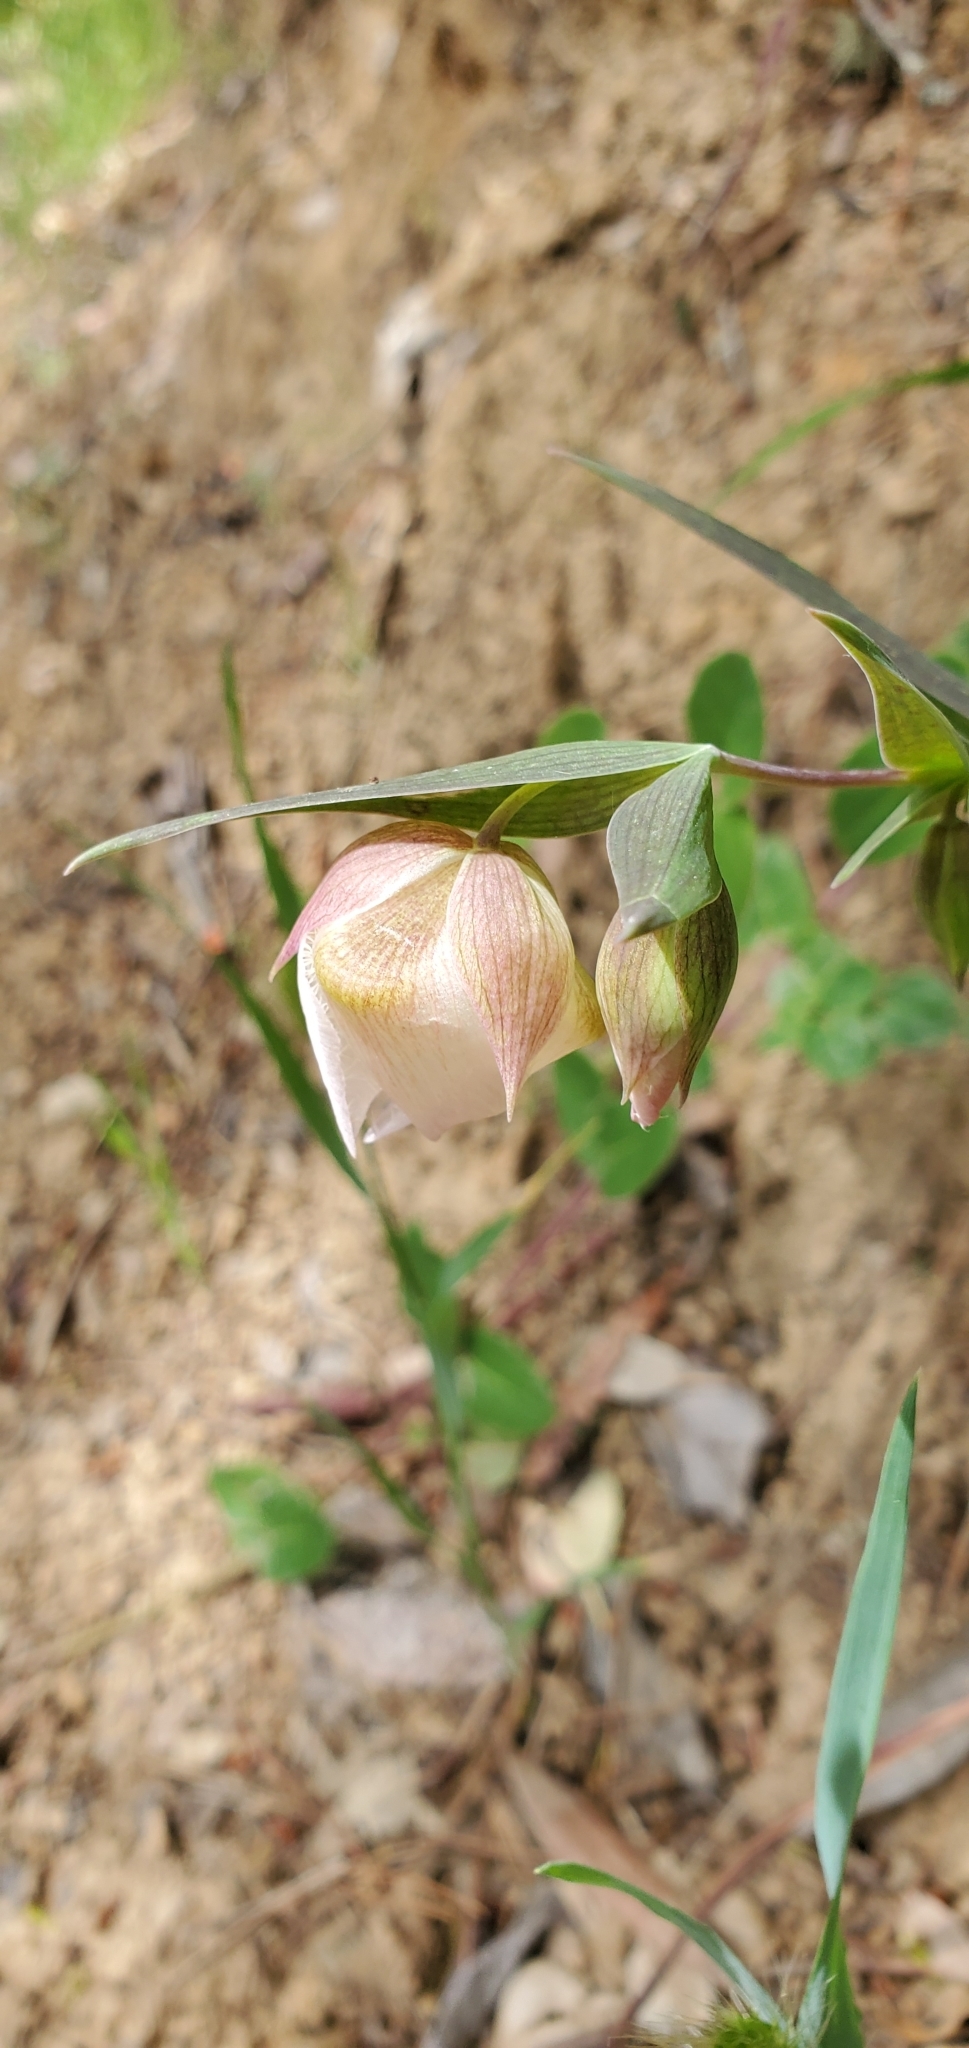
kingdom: Plantae
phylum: Tracheophyta
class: Liliopsida
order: Liliales
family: Liliaceae
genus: Calochortus
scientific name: Calochortus albus
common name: Fairy-lantern
